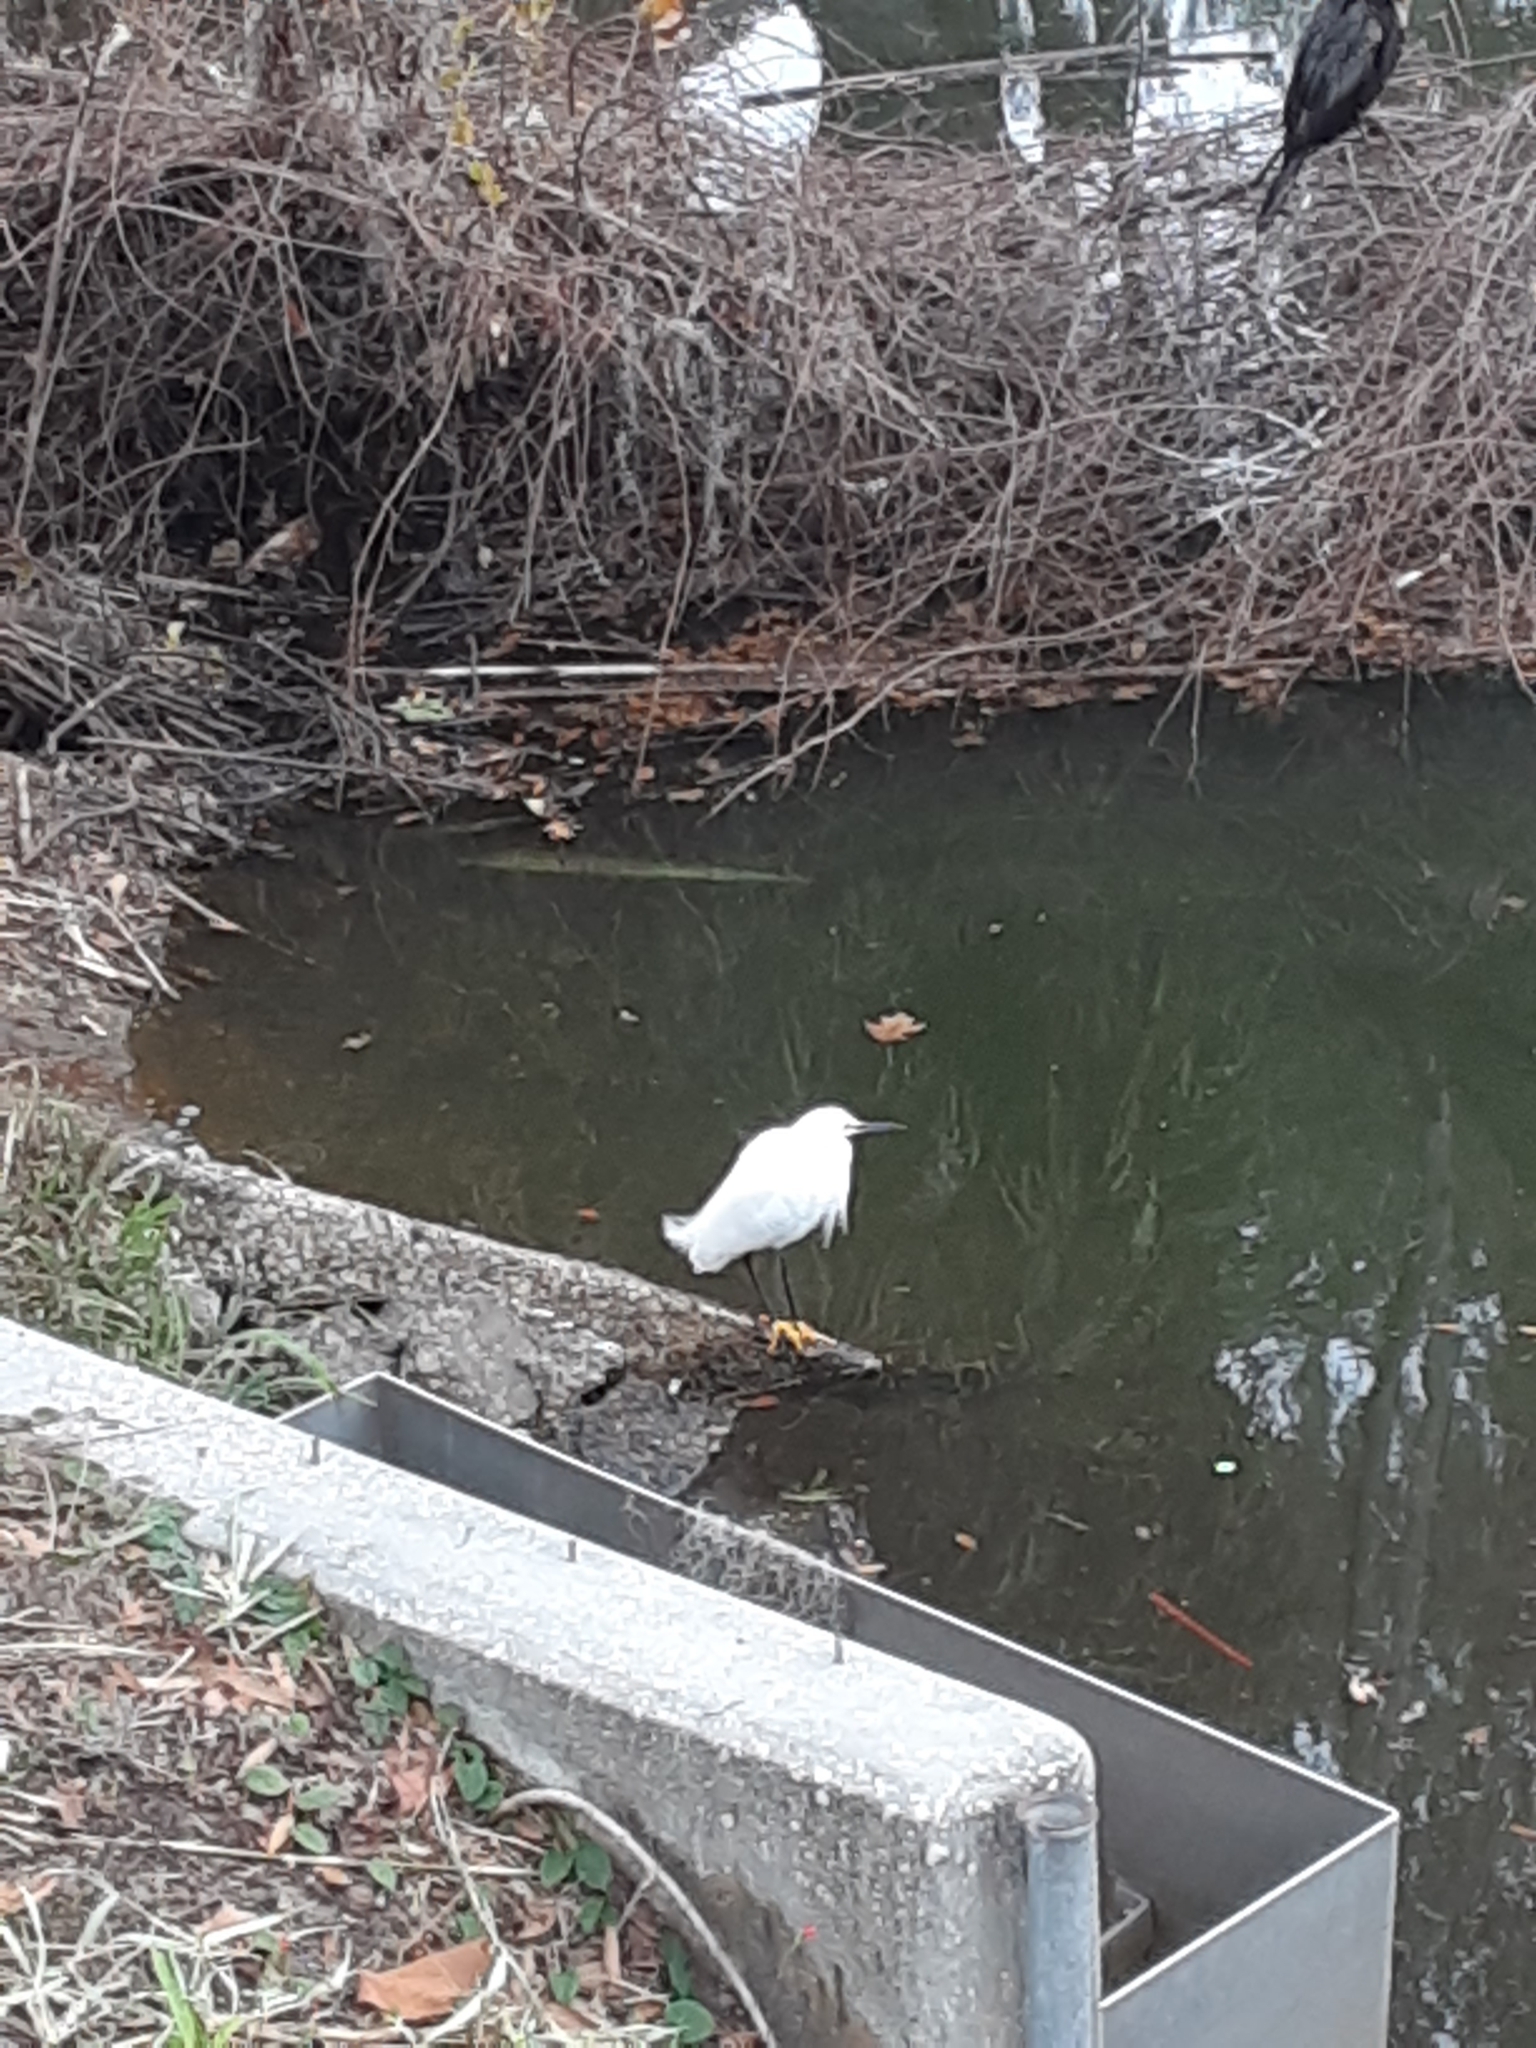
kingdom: Animalia
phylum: Chordata
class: Aves
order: Pelecaniformes
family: Ardeidae
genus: Egretta
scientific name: Egretta thula
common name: Snowy egret
